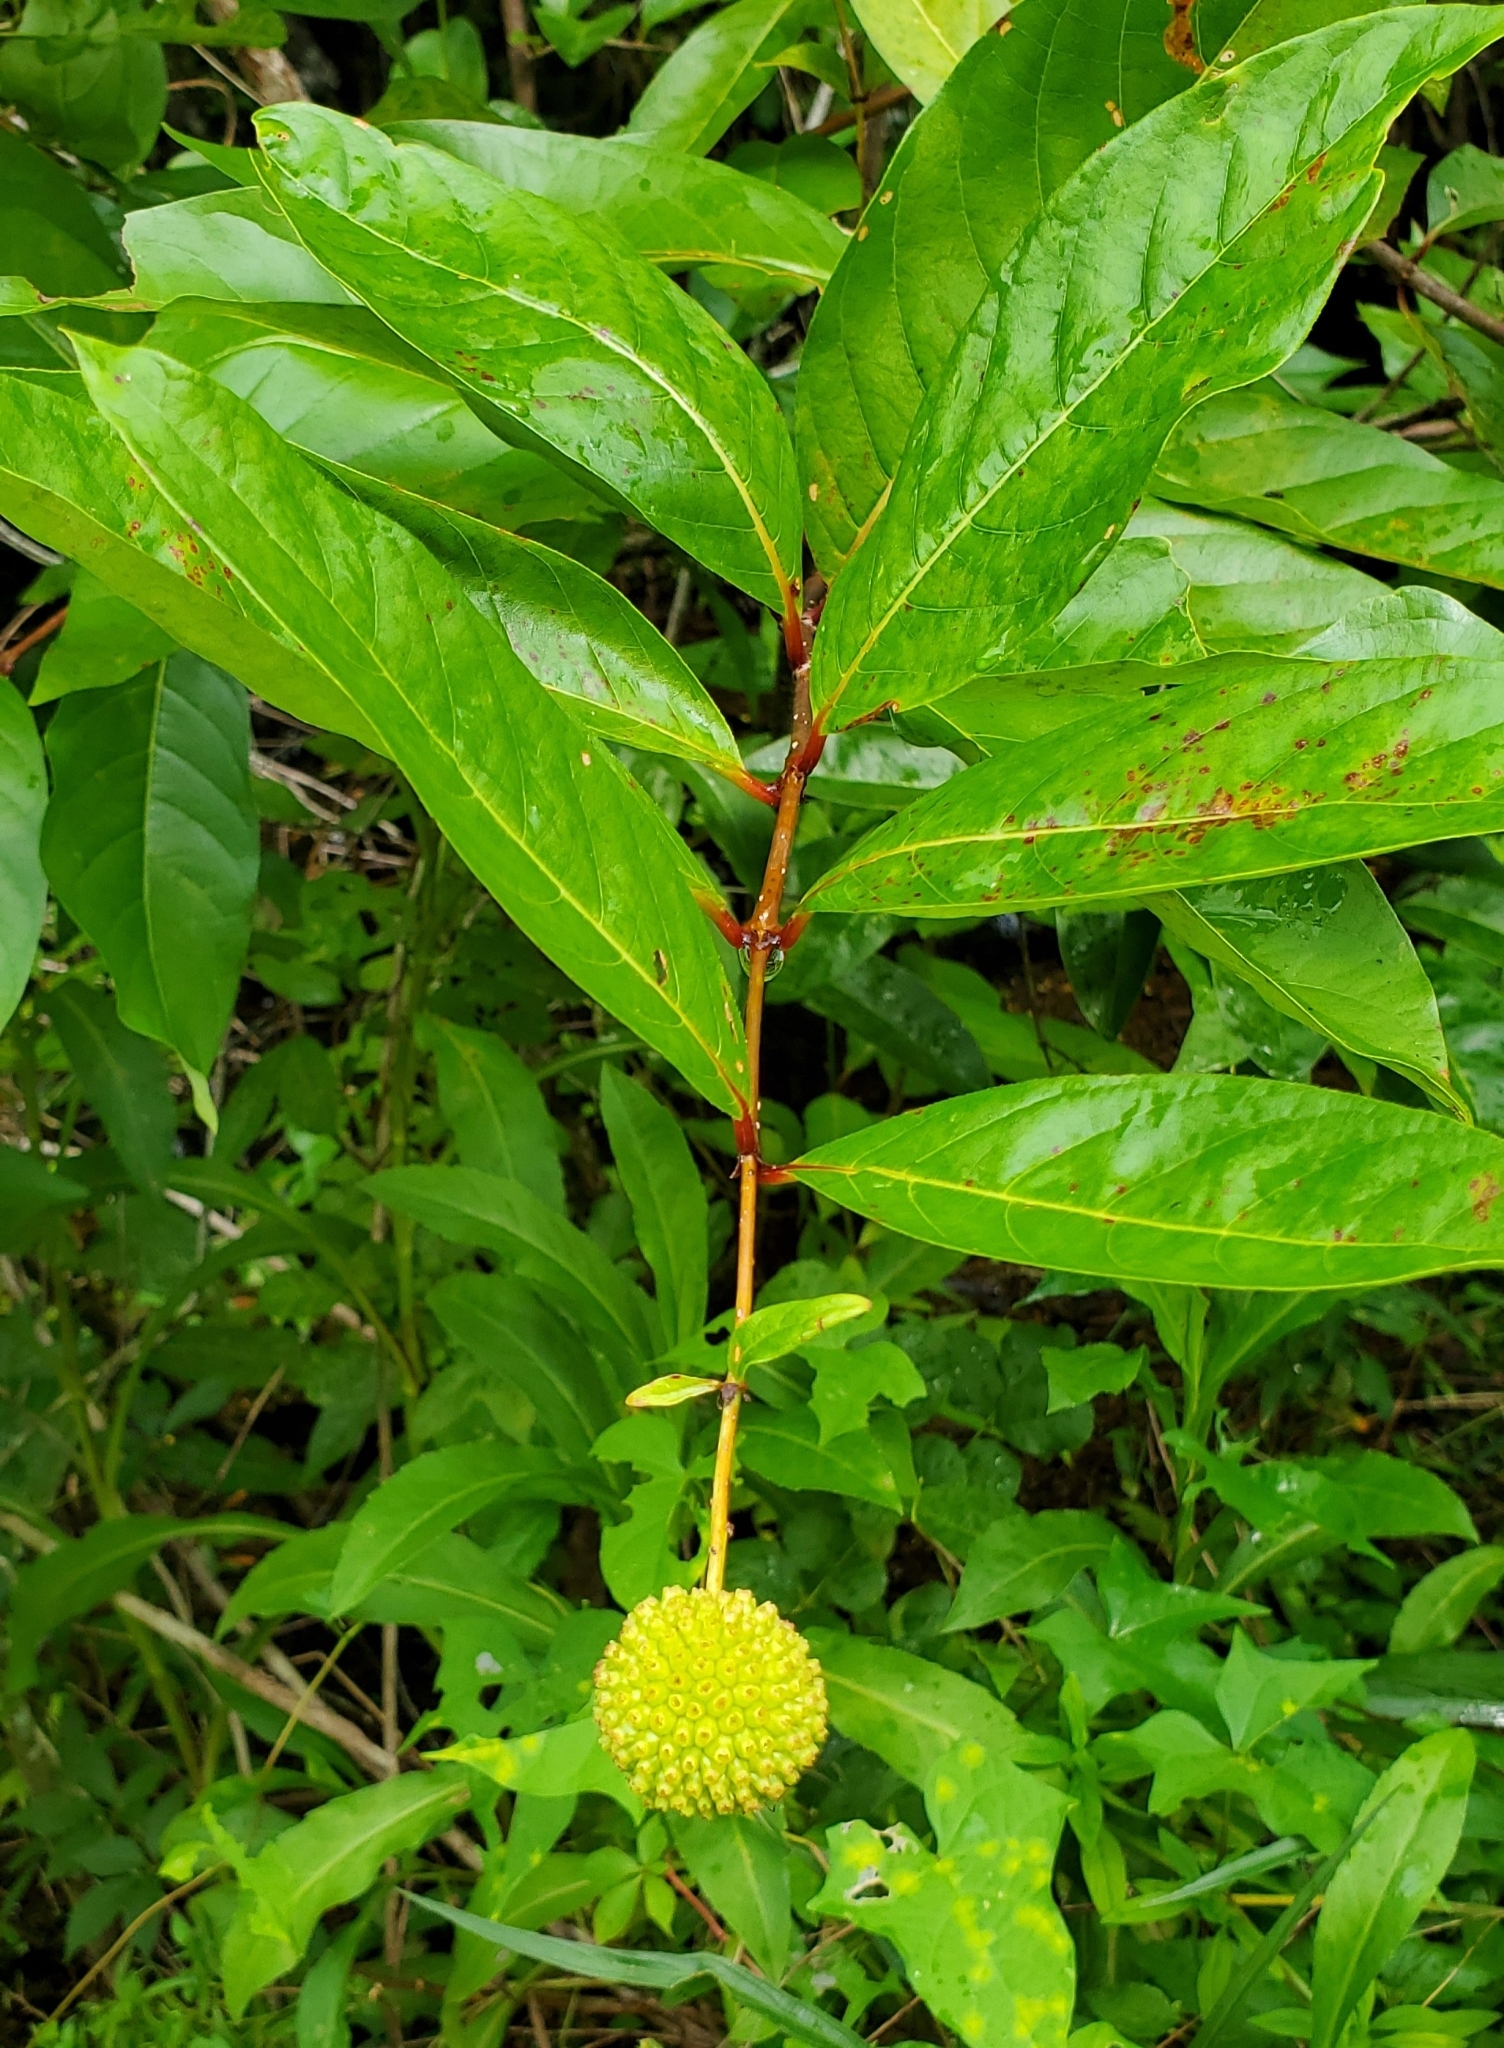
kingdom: Plantae
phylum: Tracheophyta
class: Magnoliopsida
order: Gentianales
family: Rubiaceae
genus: Cephalanthus
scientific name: Cephalanthus occidentalis
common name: Button-willow
